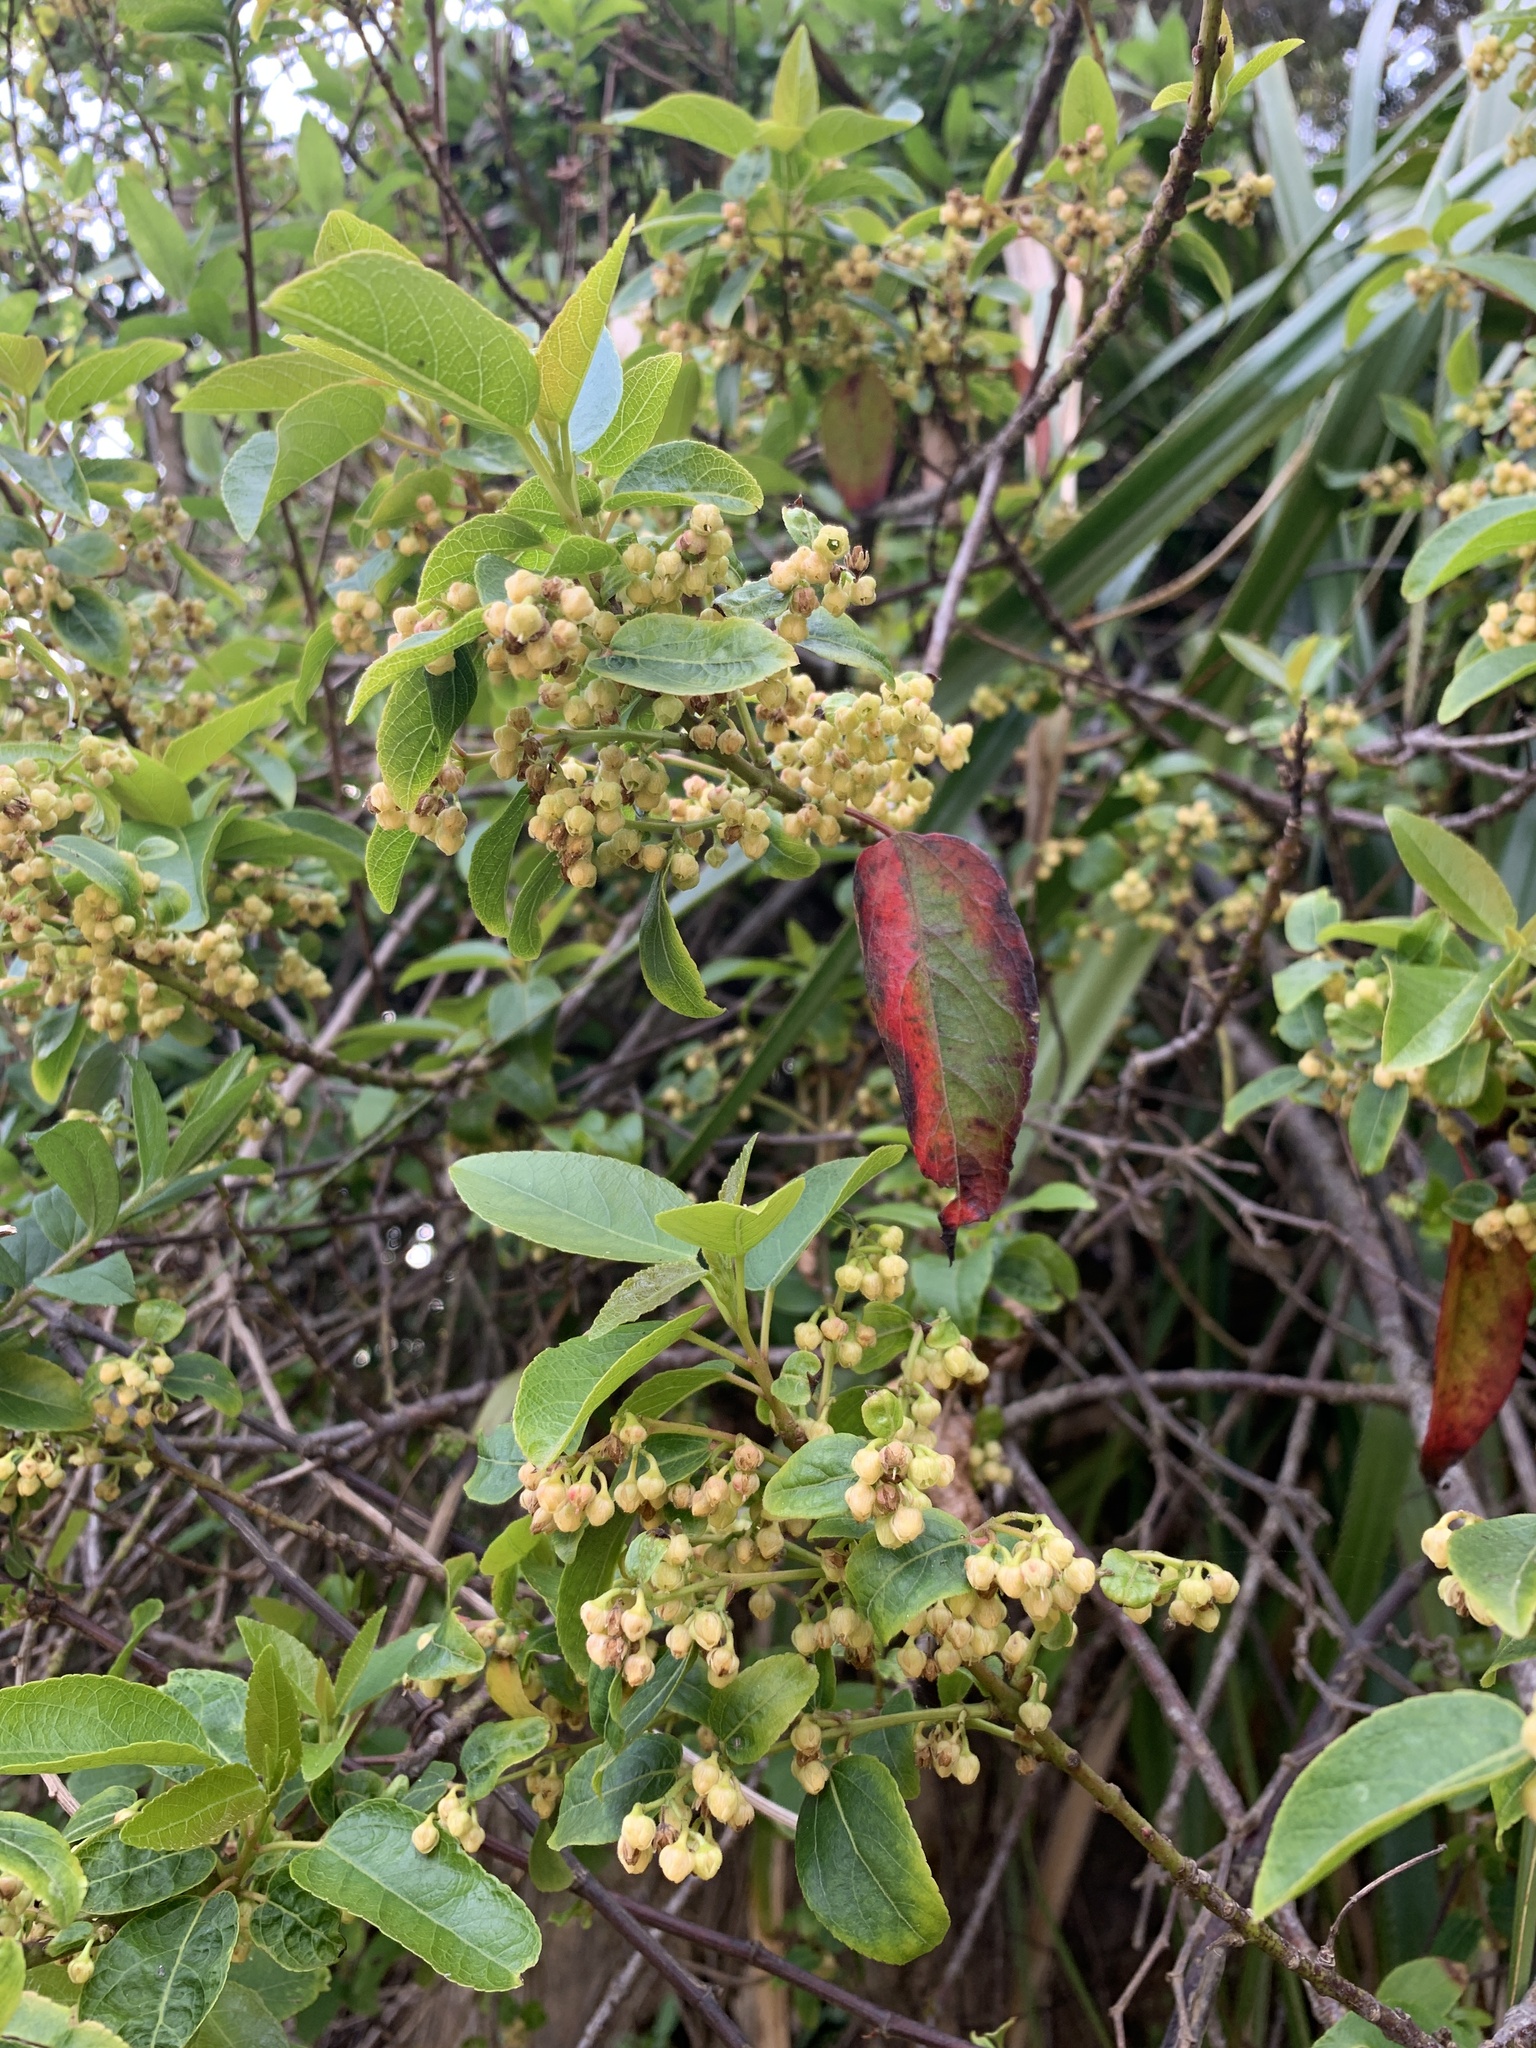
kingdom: Plantae
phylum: Tracheophyta
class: Magnoliopsida
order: Oxalidales
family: Elaeocarpaceae
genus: Aristotelia
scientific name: Aristotelia chilensis
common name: Maquei
